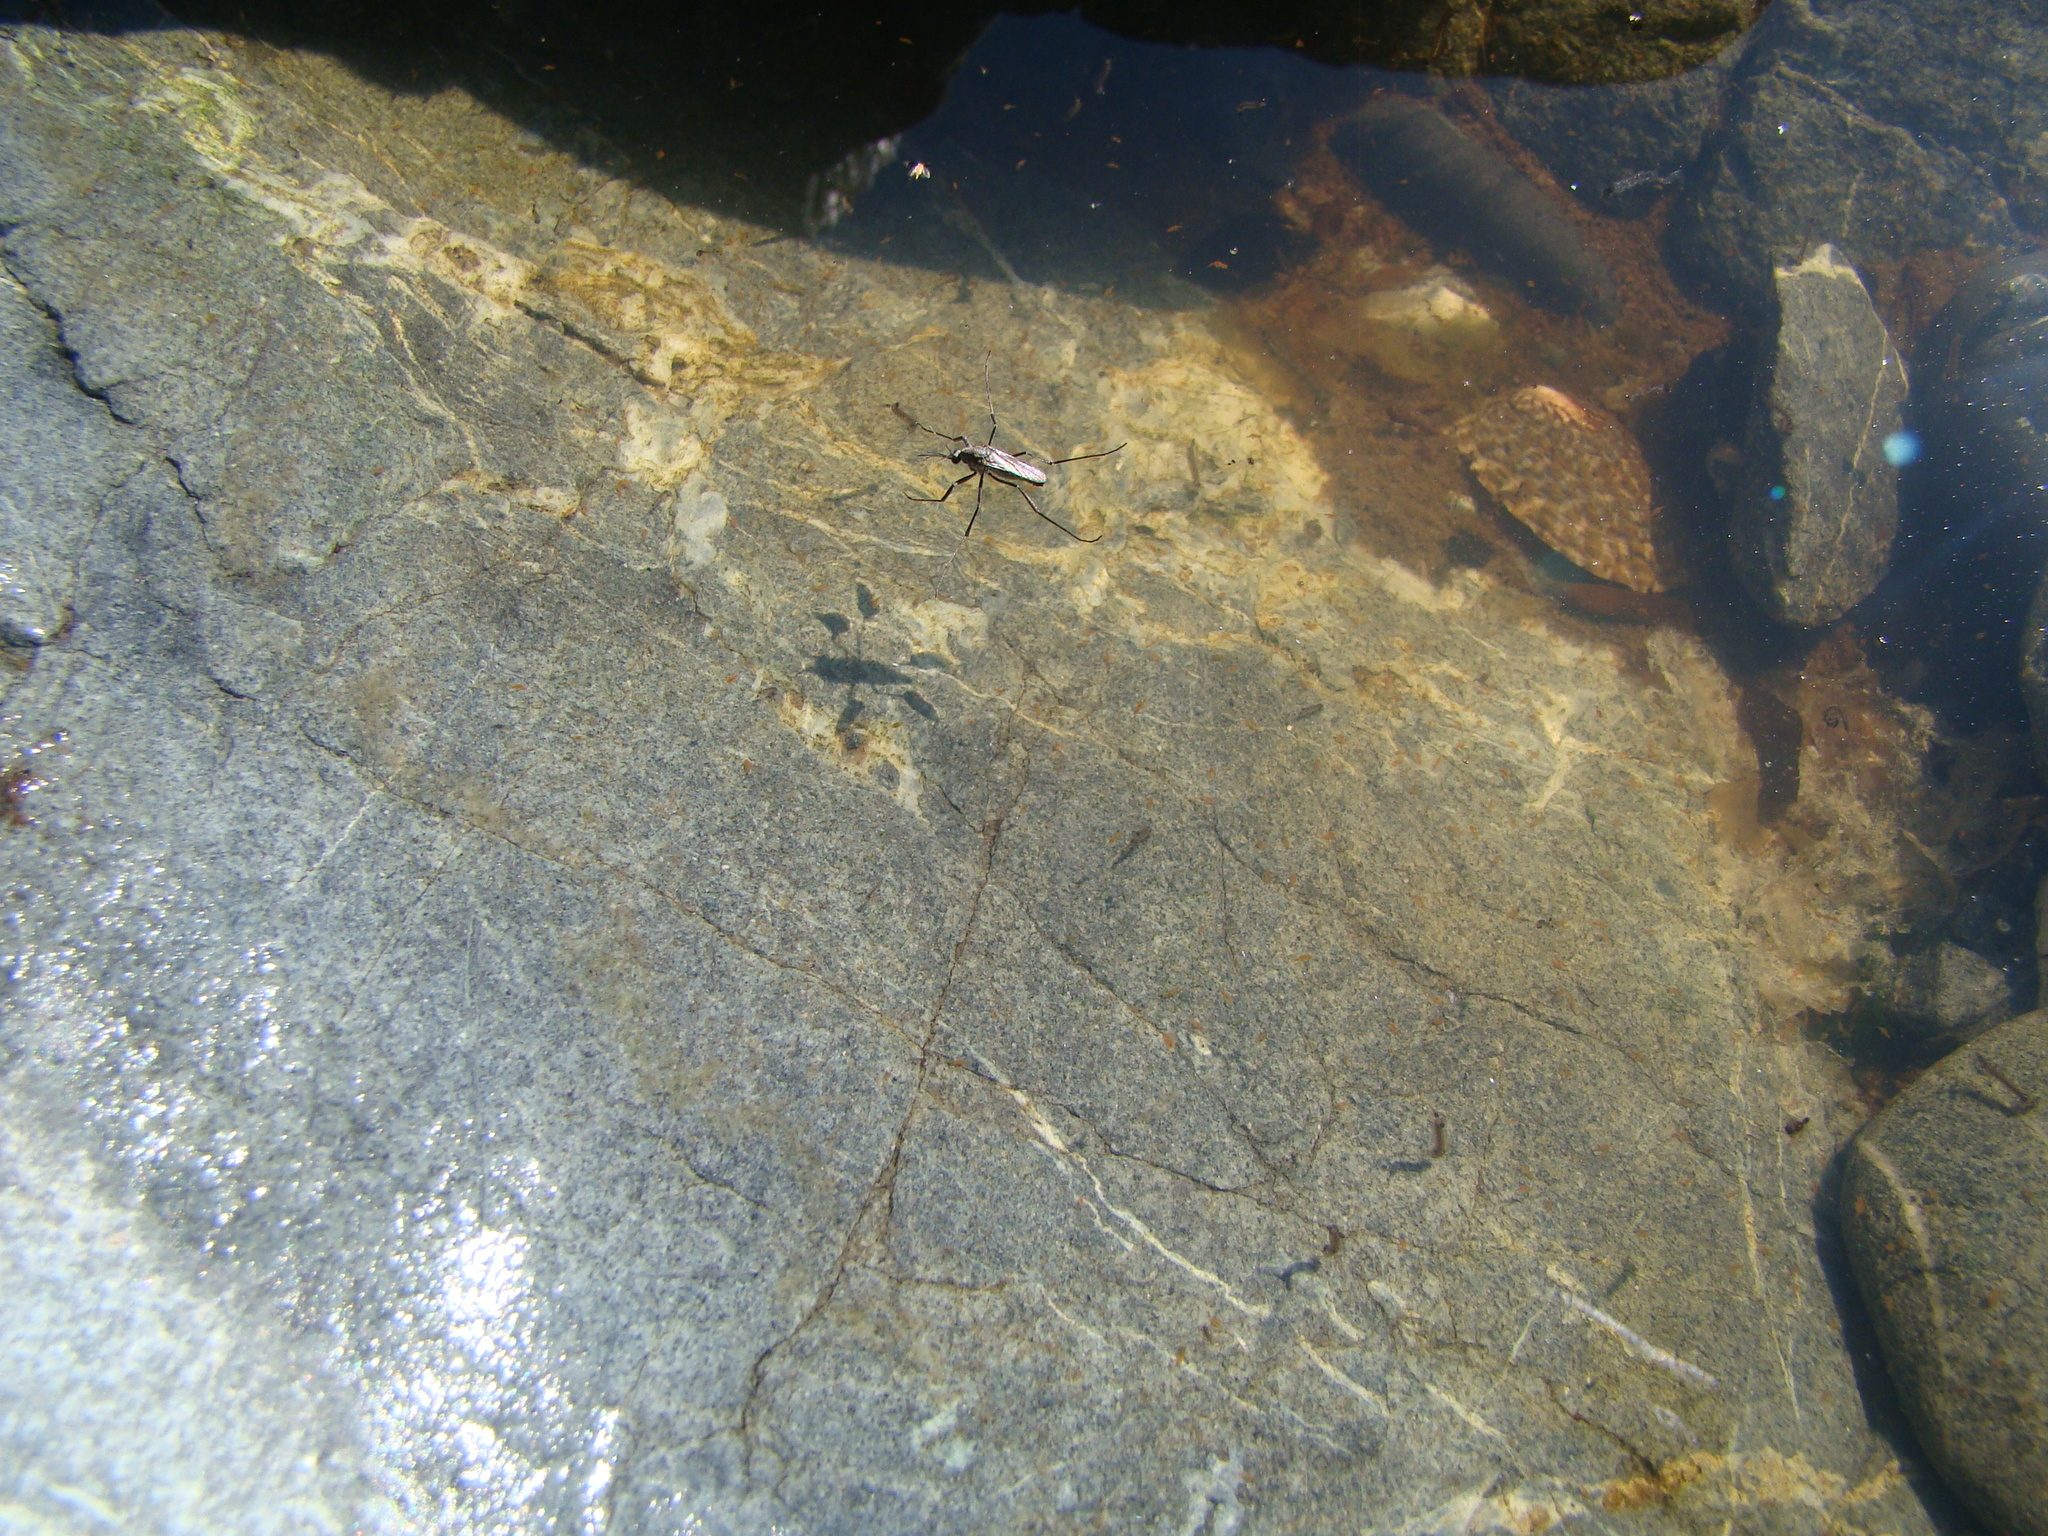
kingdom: Animalia
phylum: Arthropoda
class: Insecta
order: Diptera
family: Culicidae
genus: Opifex
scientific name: Opifex fuscus
